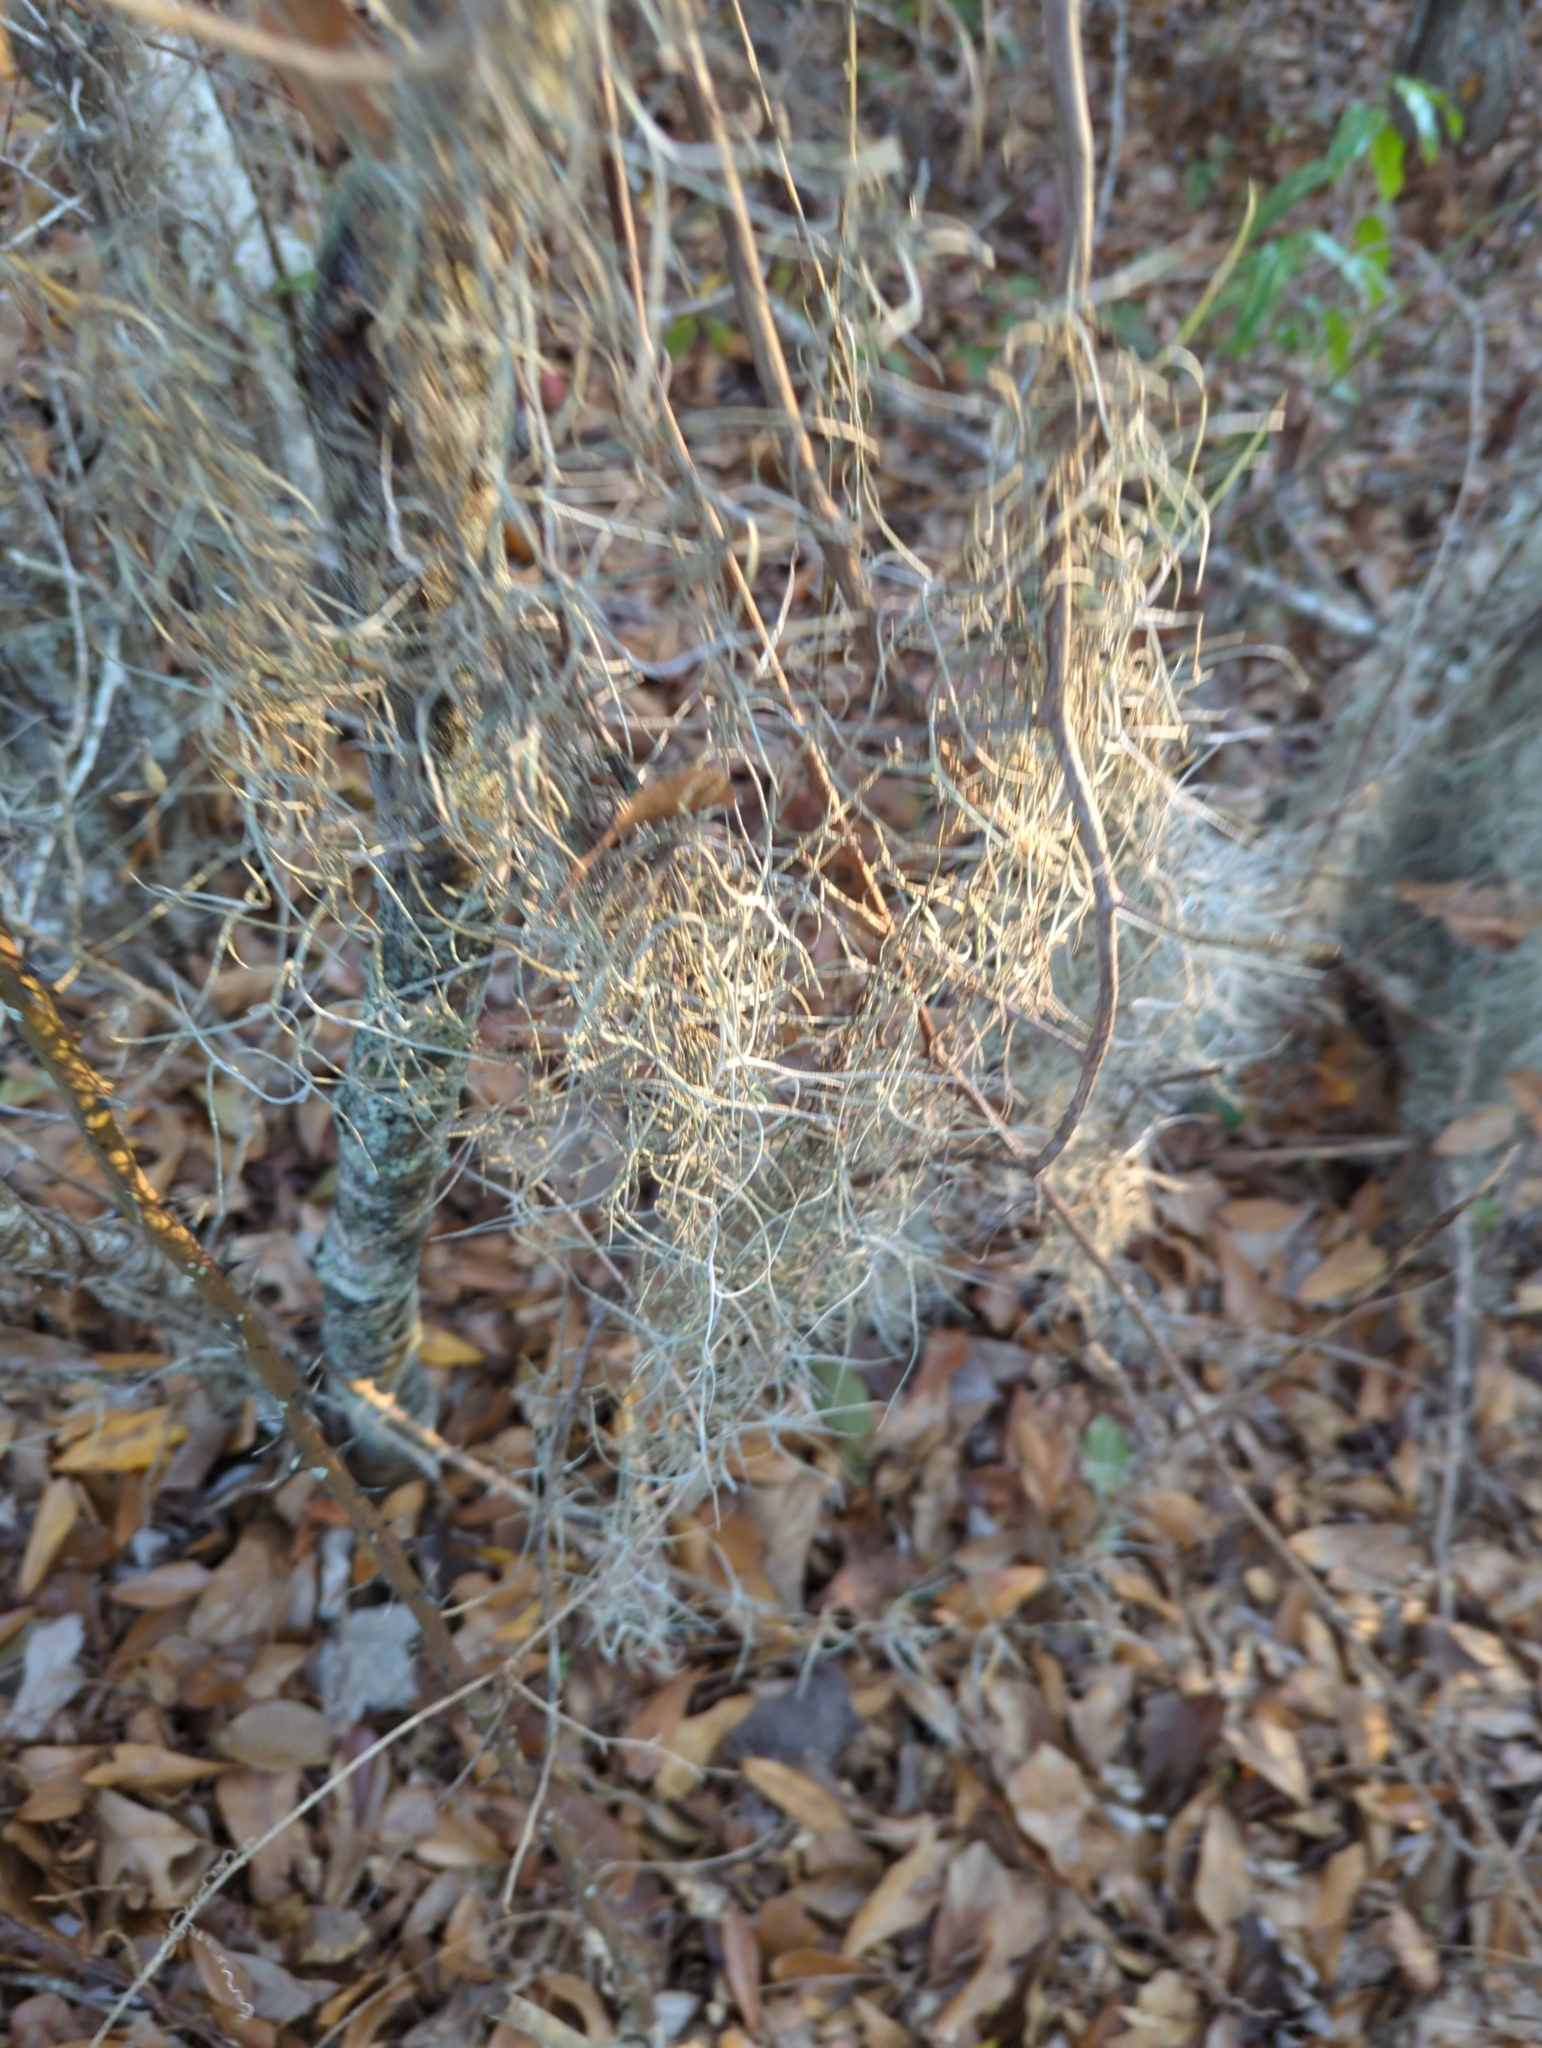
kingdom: Plantae
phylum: Tracheophyta
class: Liliopsida
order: Poales
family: Bromeliaceae
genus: Tillandsia
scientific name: Tillandsia usneoides
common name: Spanish moss
